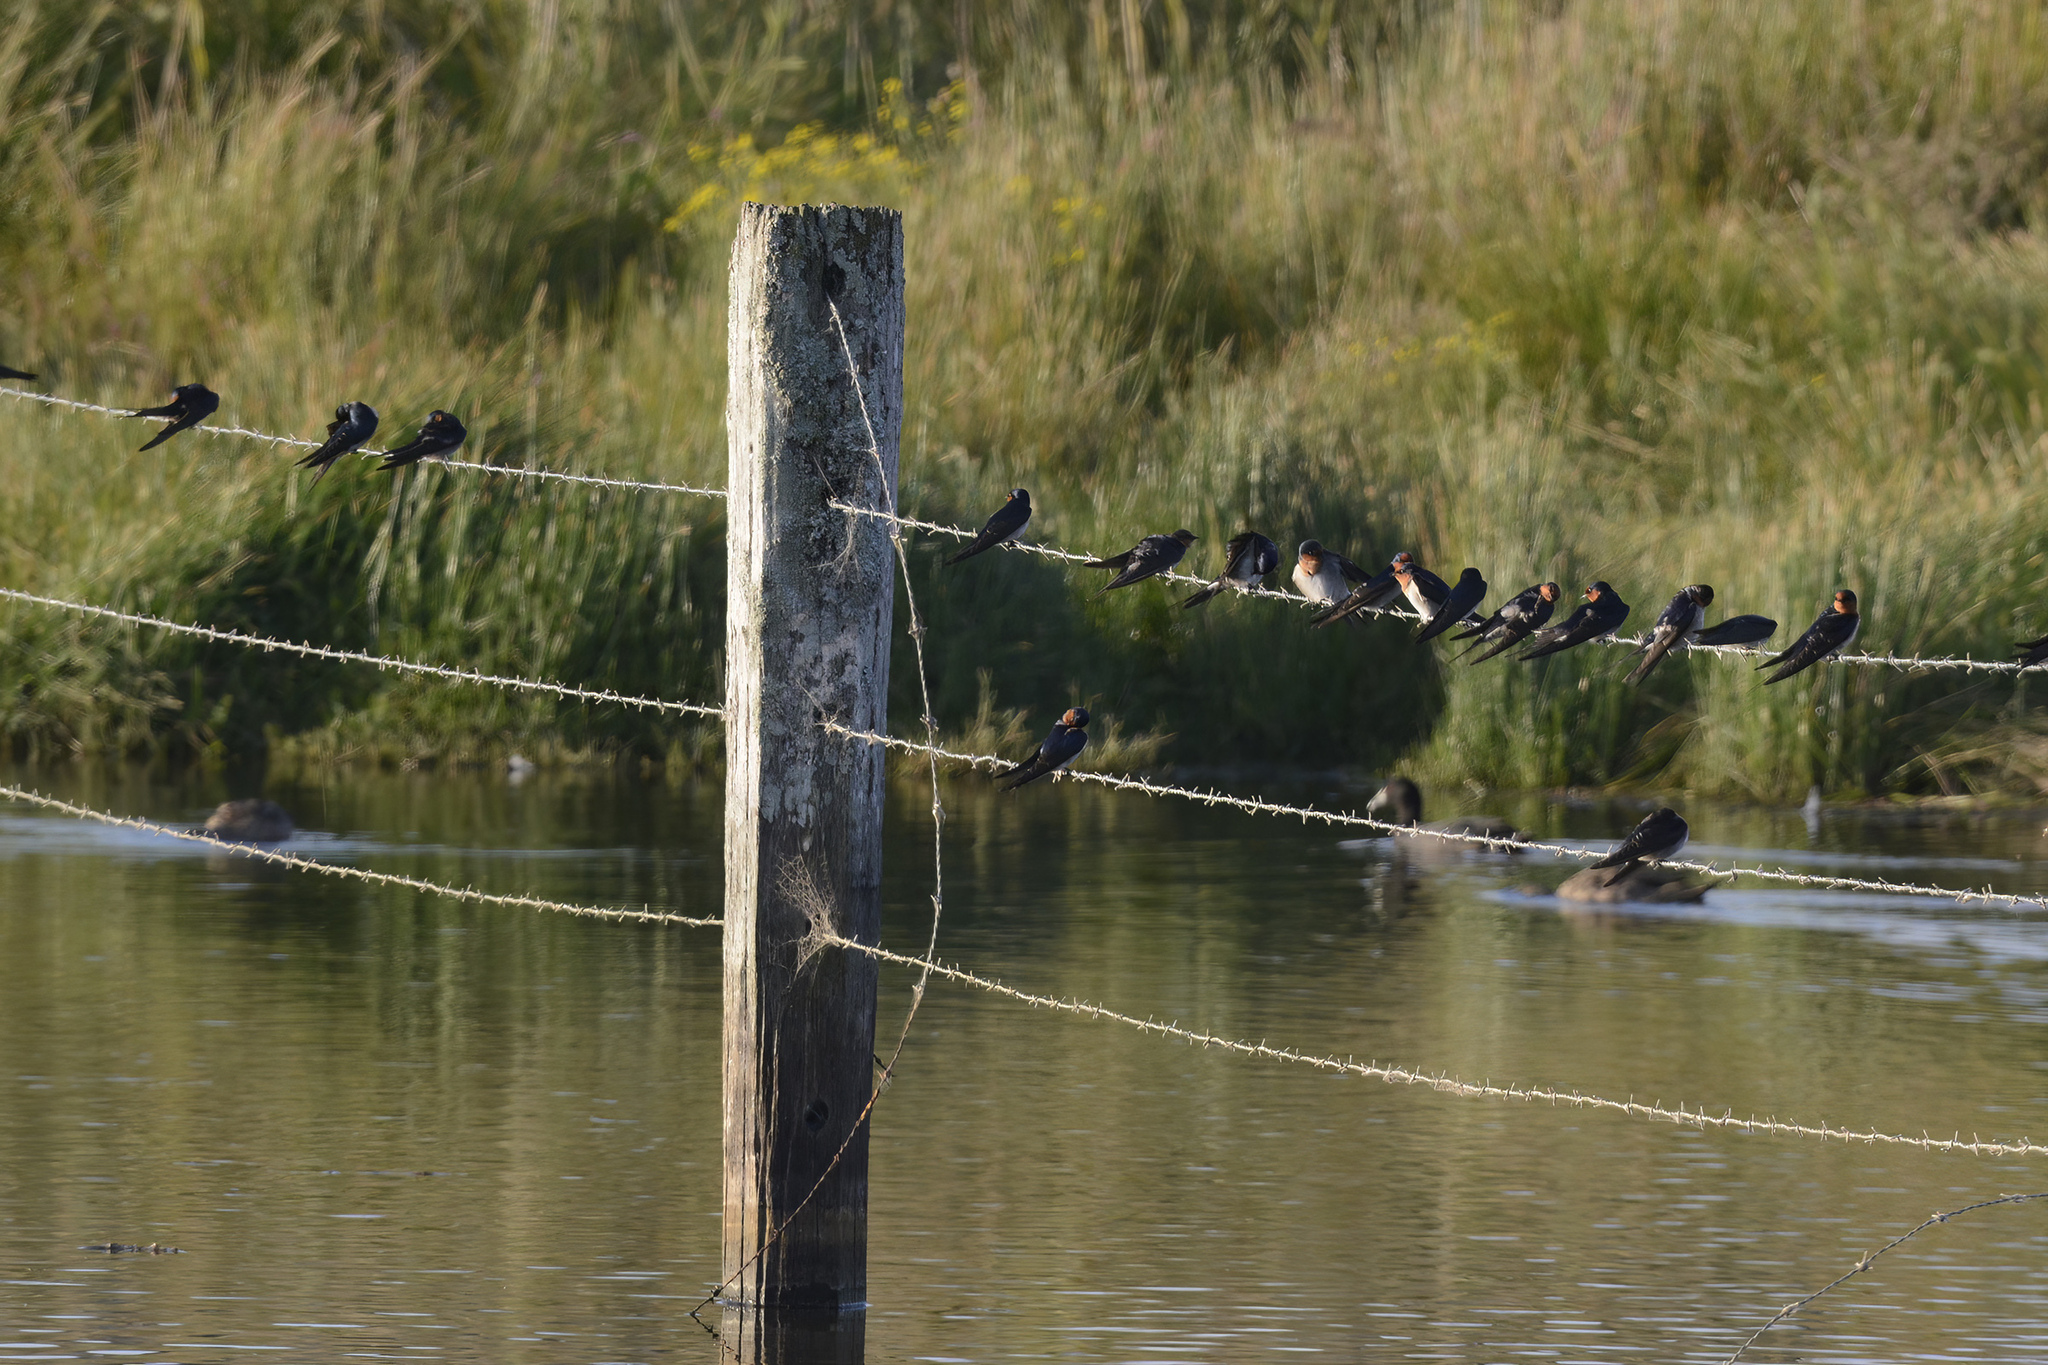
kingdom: Animalia
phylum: Chordata
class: Aves
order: Passeriformes
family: Hirundinidae
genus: Hirundo
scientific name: Hirundo neoxena
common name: Welcome swallow
